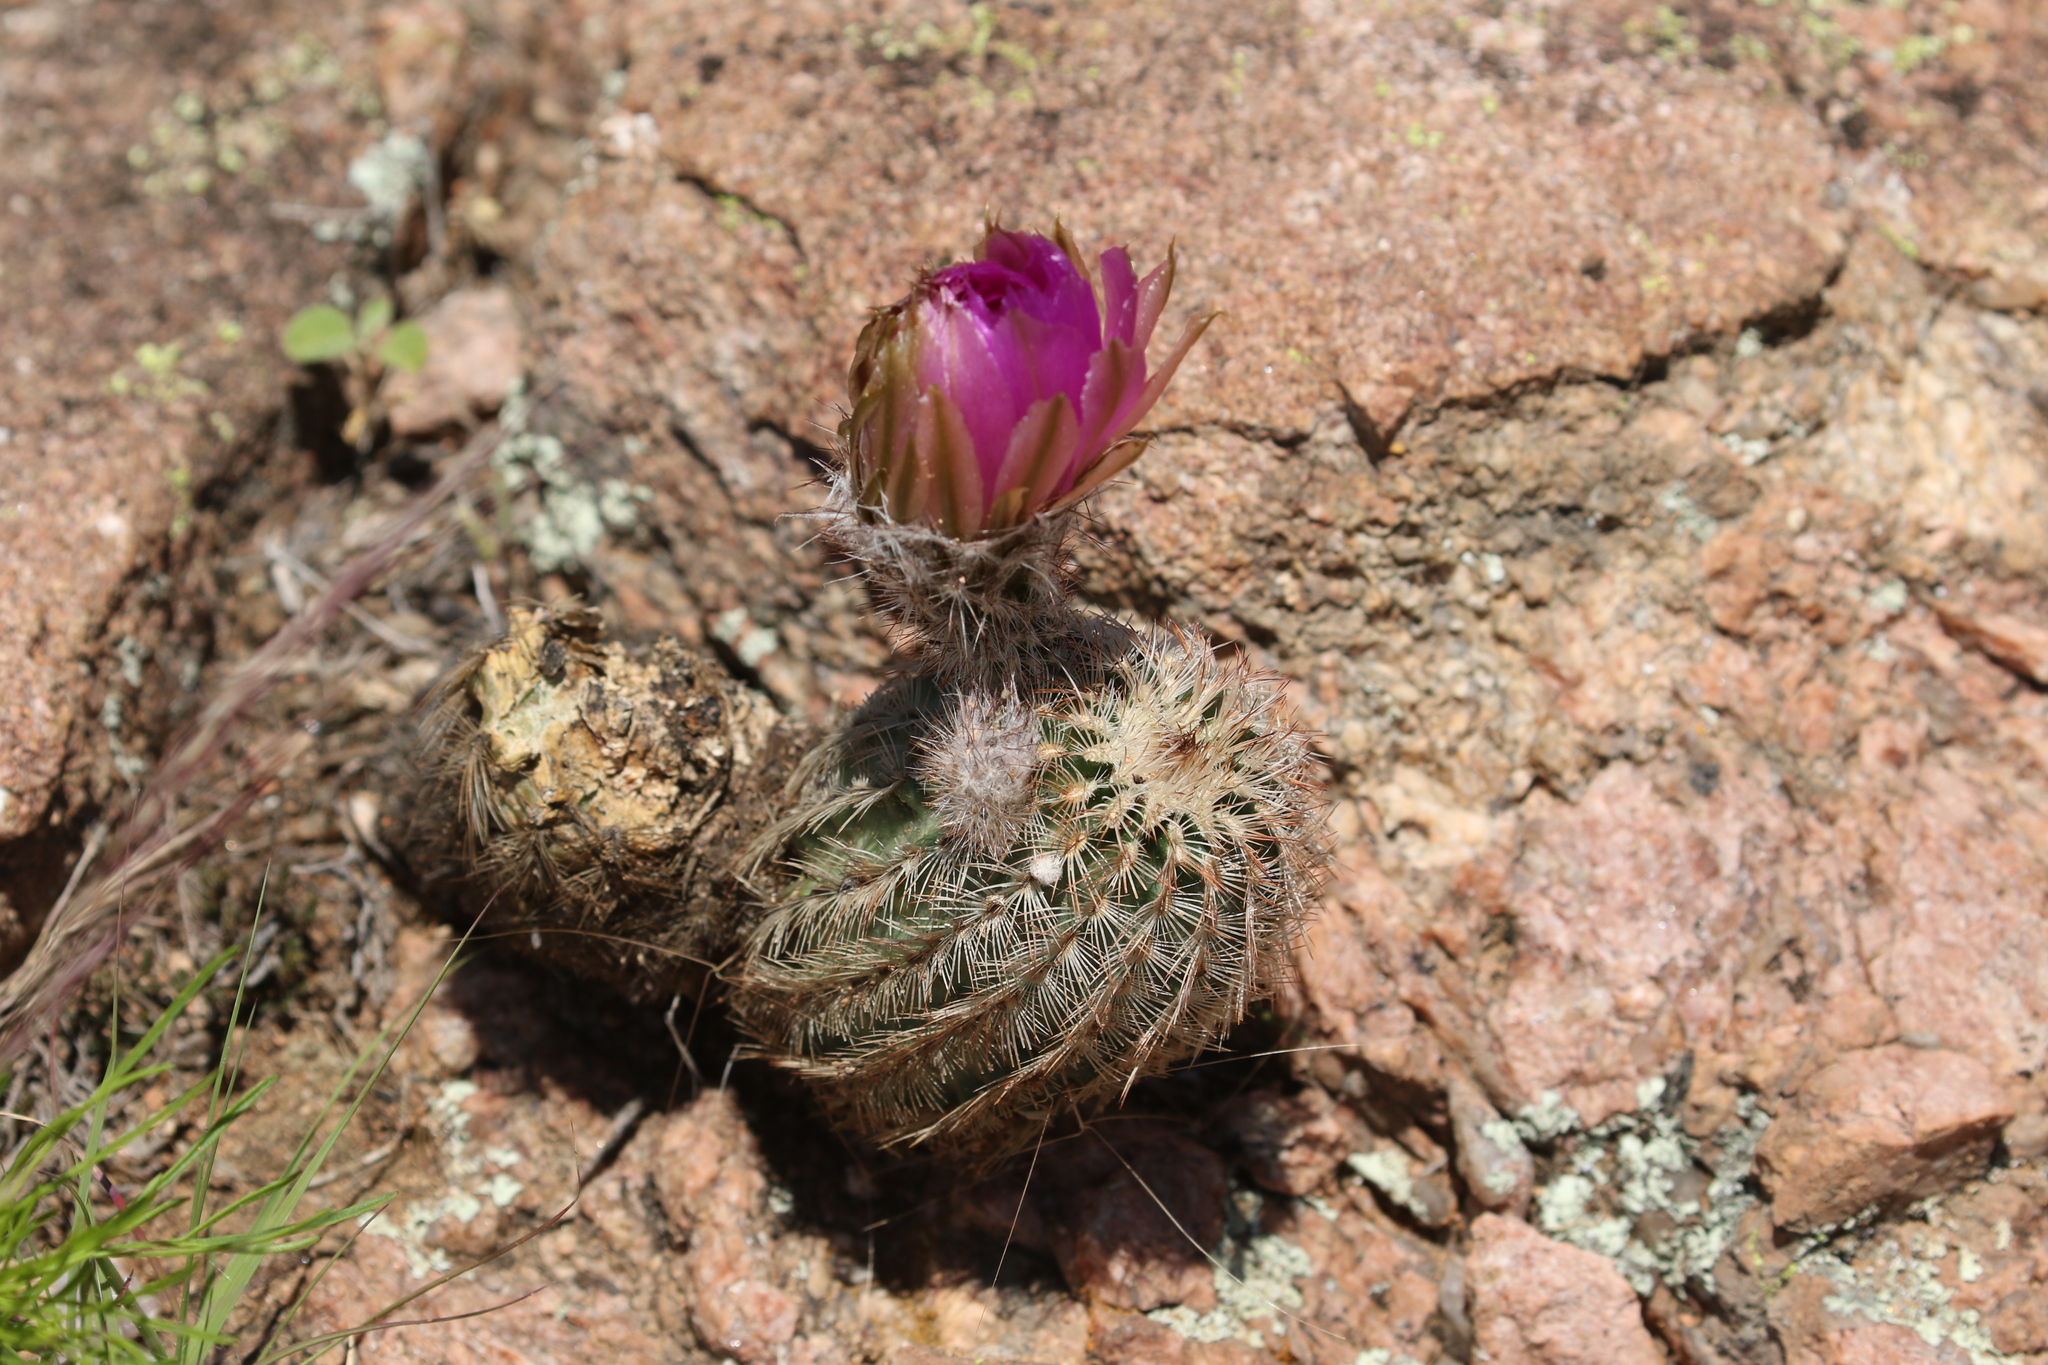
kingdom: Plantae
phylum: Tracheophyta
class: Magnoliopsida
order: Caryophyllales
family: Cactaceae
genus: Echinocereus
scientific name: Echinocereus reichenbachii
